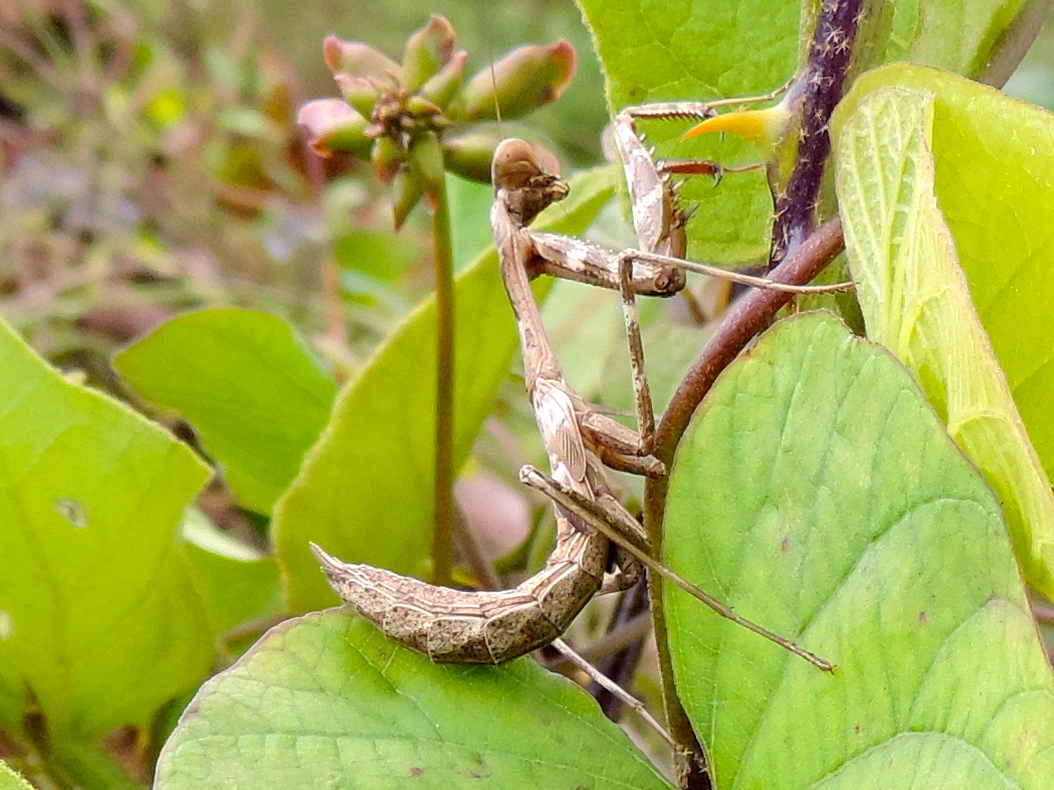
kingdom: Animalia
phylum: Arthropoda
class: Insecta
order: Mantodea
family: Mantidae
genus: Stagmomantis
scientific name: Stagmomantis
